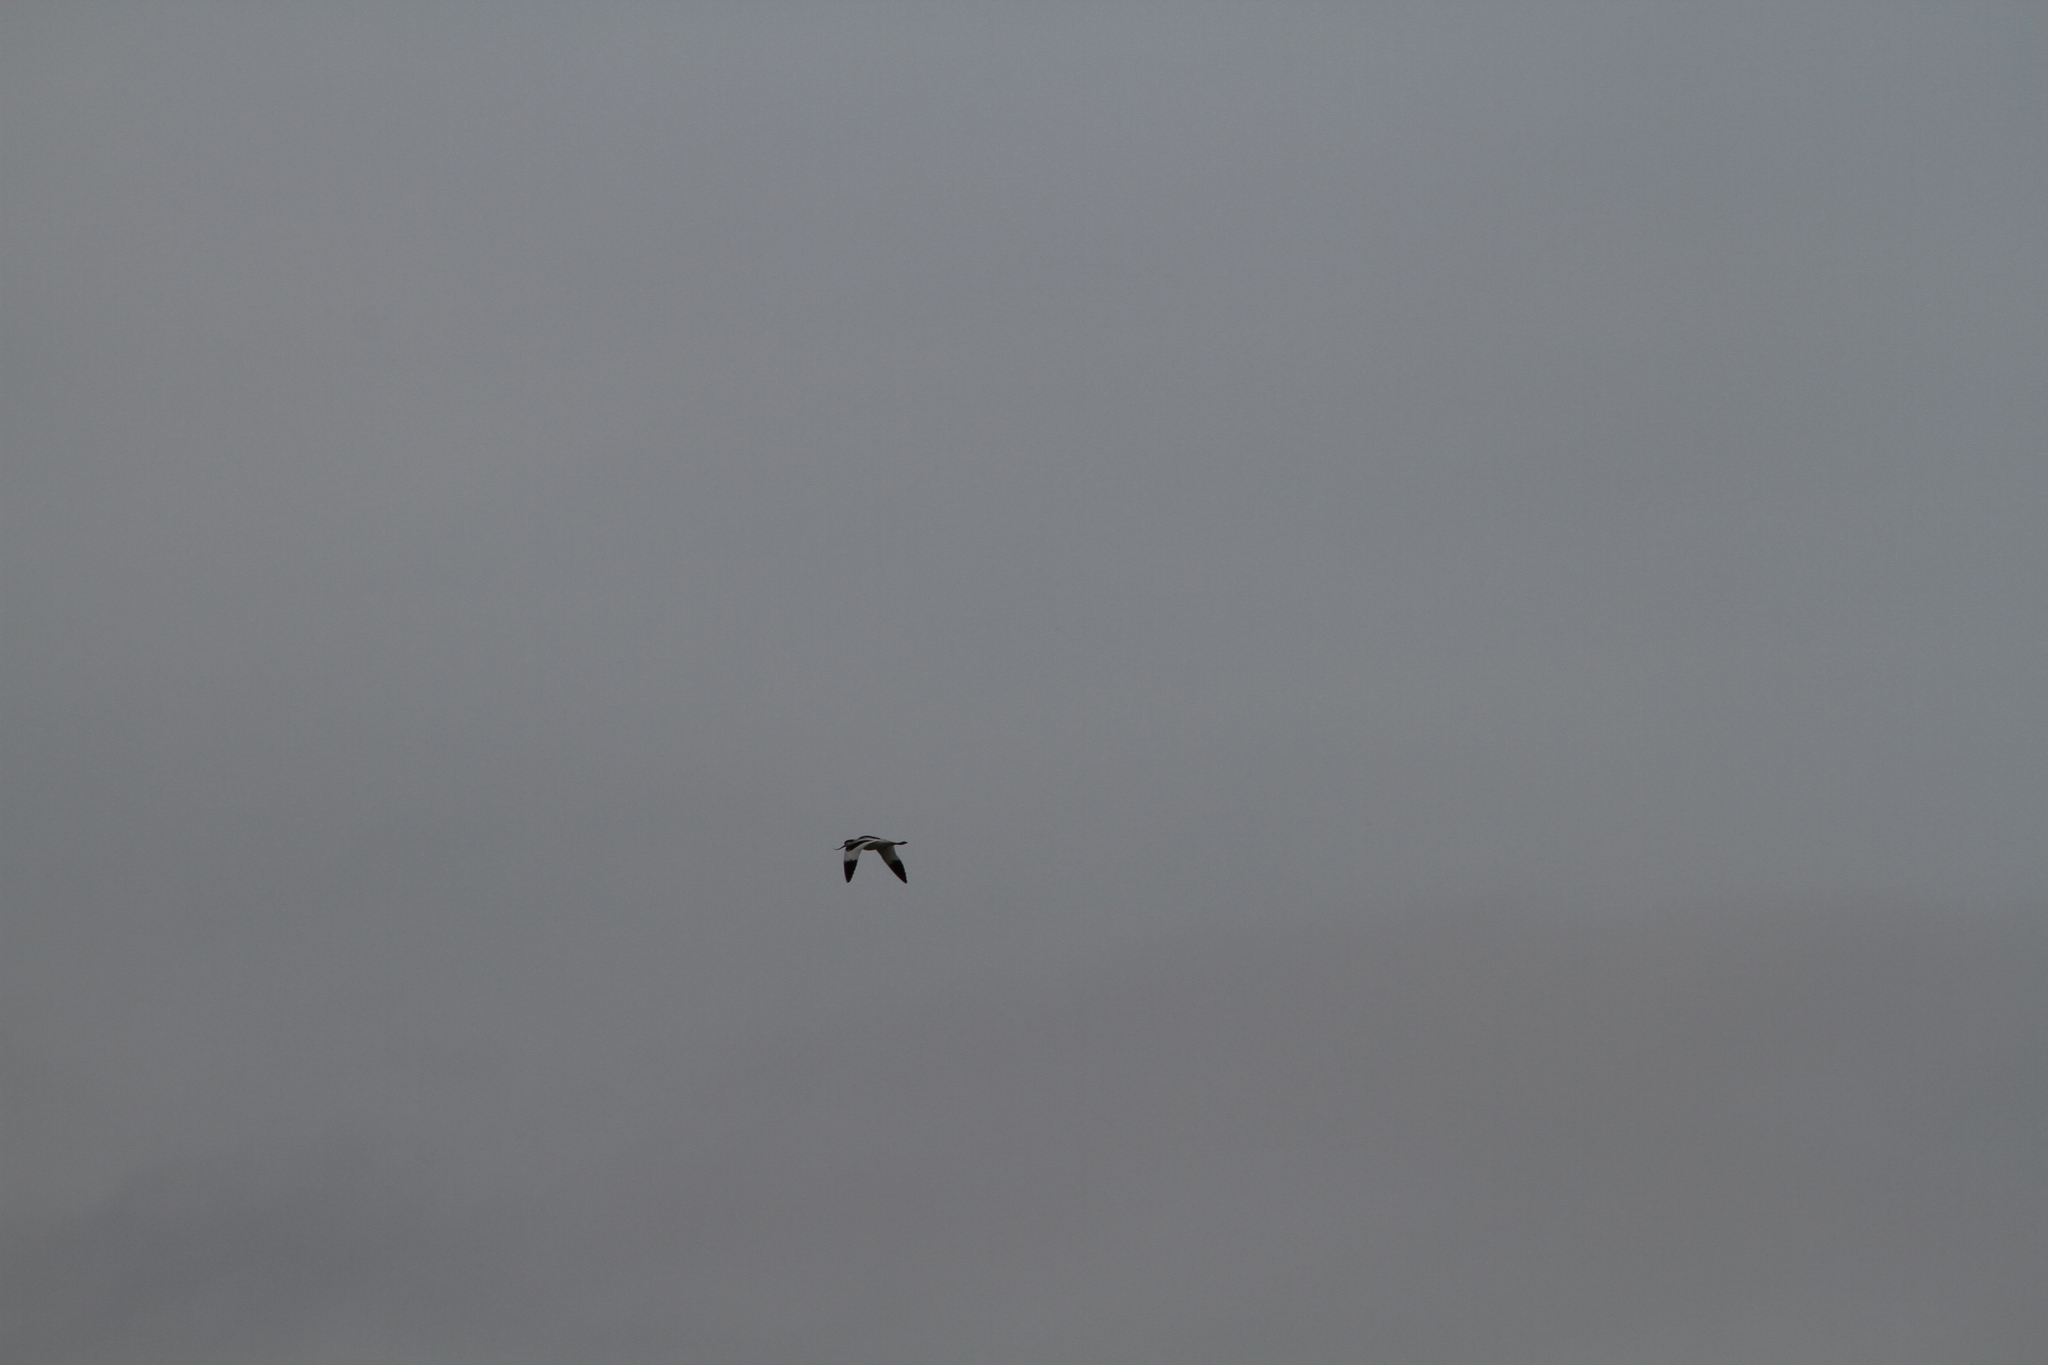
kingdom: Animalia
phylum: Chordata
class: Aves
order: Charadriiformes
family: Recurvirostridae
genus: Recurvirostra
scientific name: Recurvirostra avosetta
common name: Pied avocet
